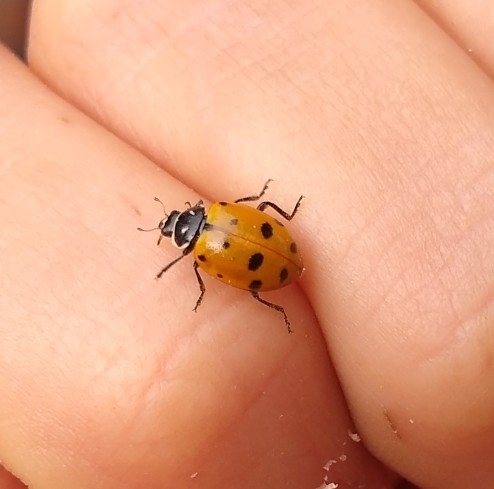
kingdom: Animalia
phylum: Arthropoda
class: Insecta
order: Coleoptera
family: Coccinellidae
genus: Hippodamia
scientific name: Hippodamia convergens
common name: Convergent lady beetle
